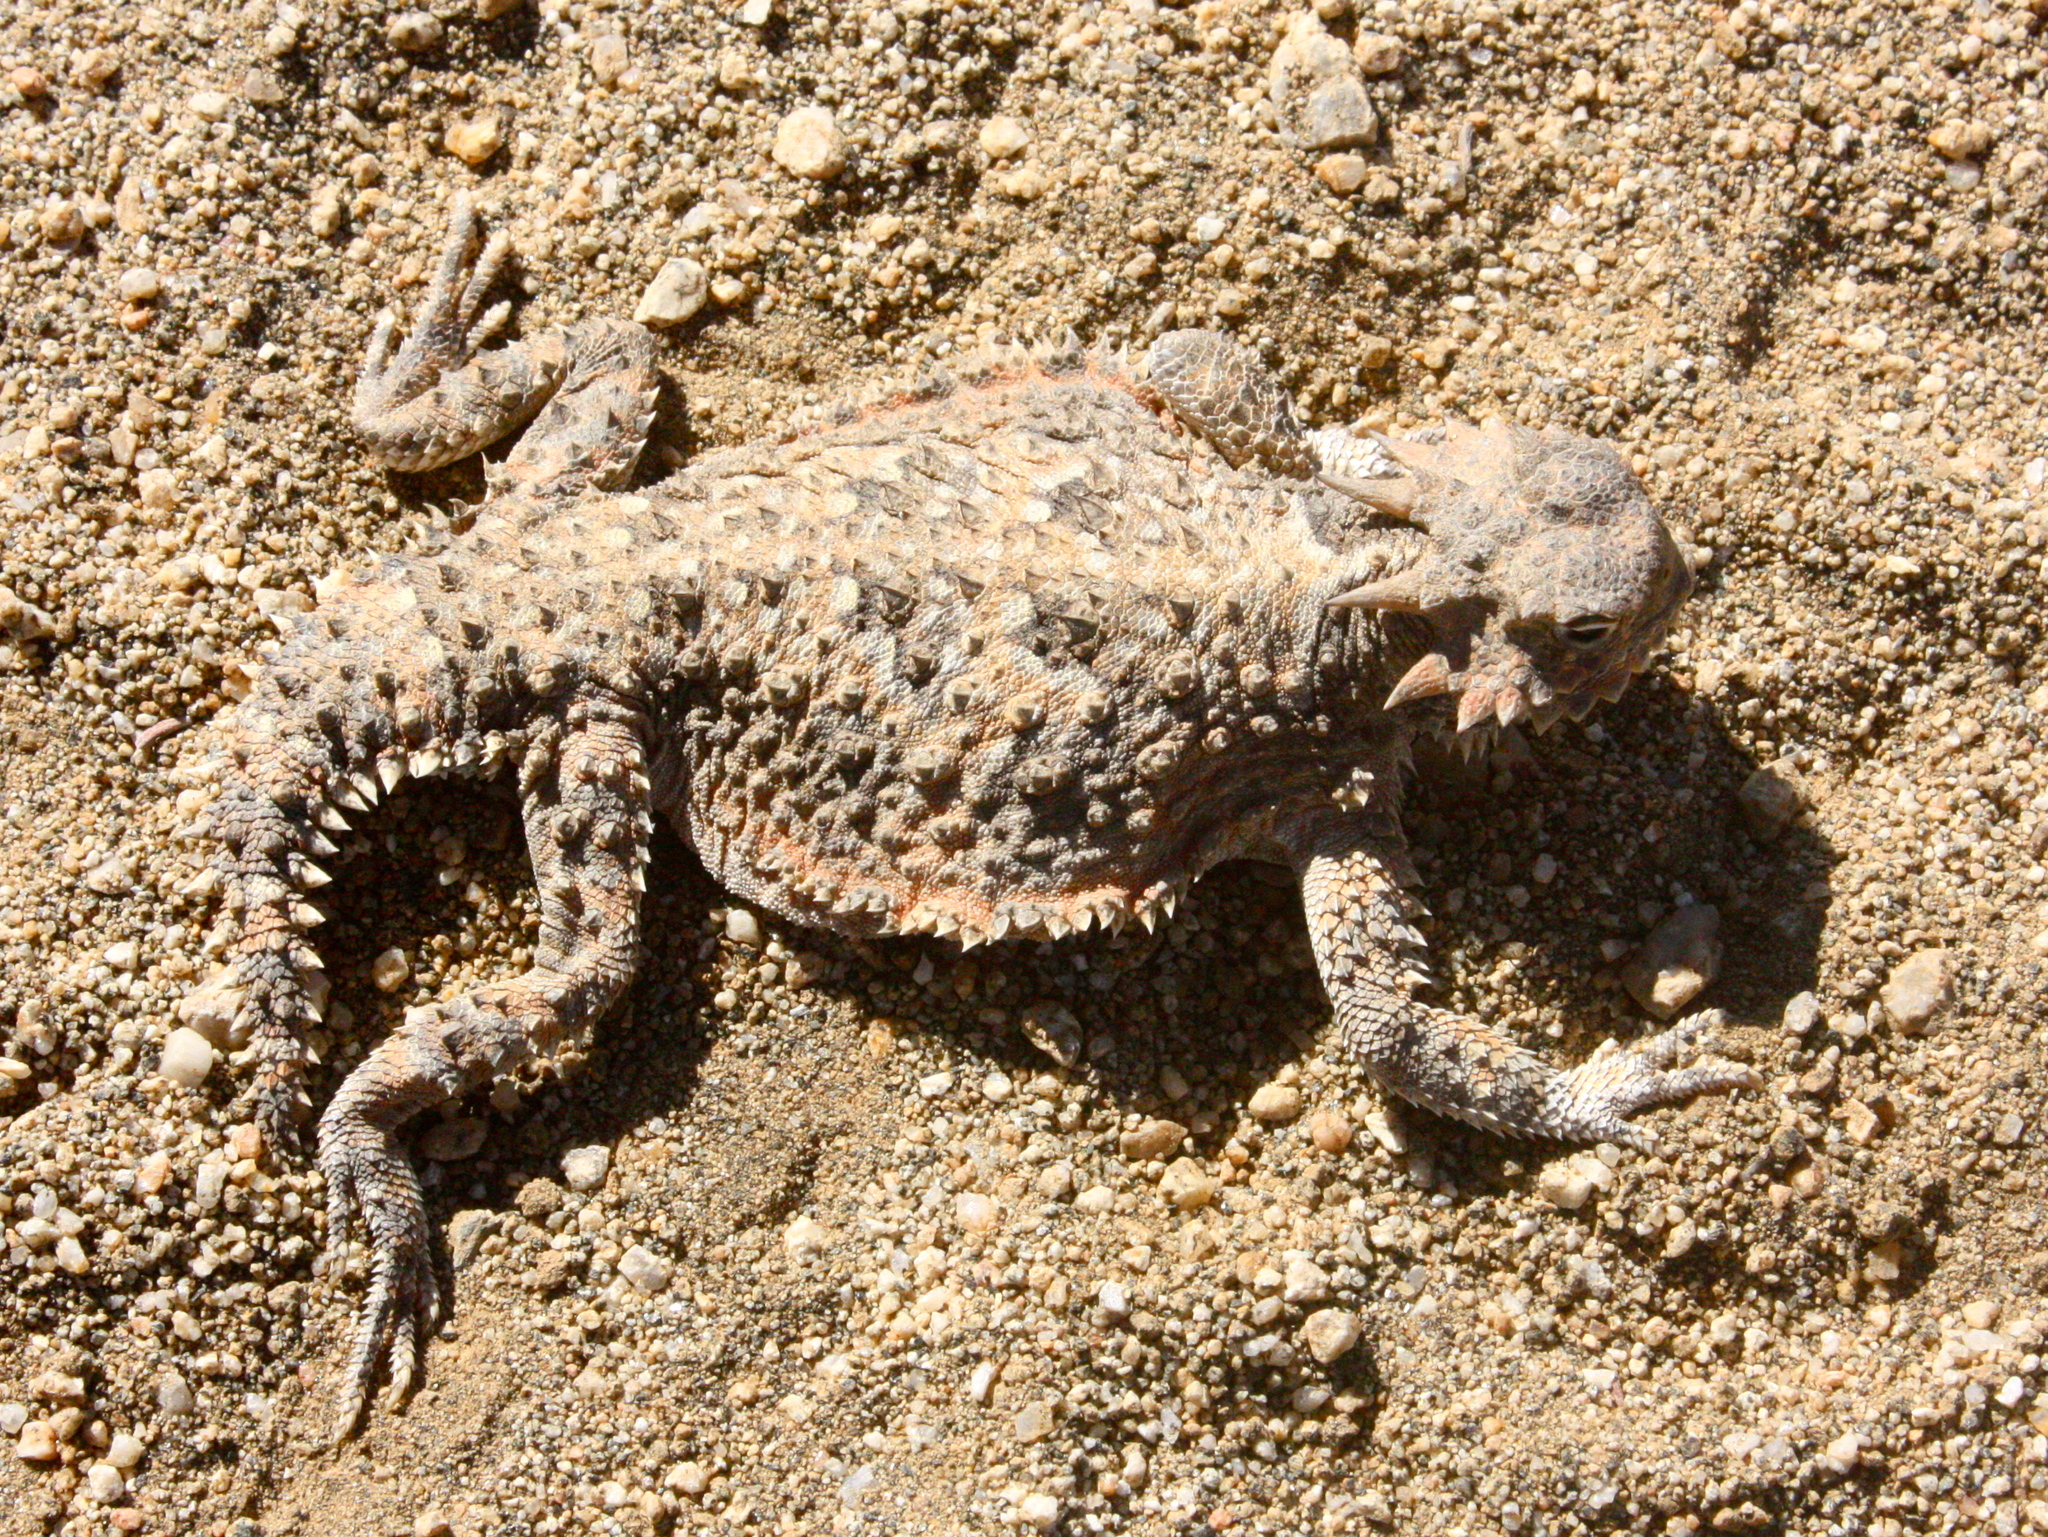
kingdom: Animalia
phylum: Chordata
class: Squamata
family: Phrynosomatidae
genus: Phrynosoma
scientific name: Phrynosoma platyrhinos
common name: Desert horned lizard
